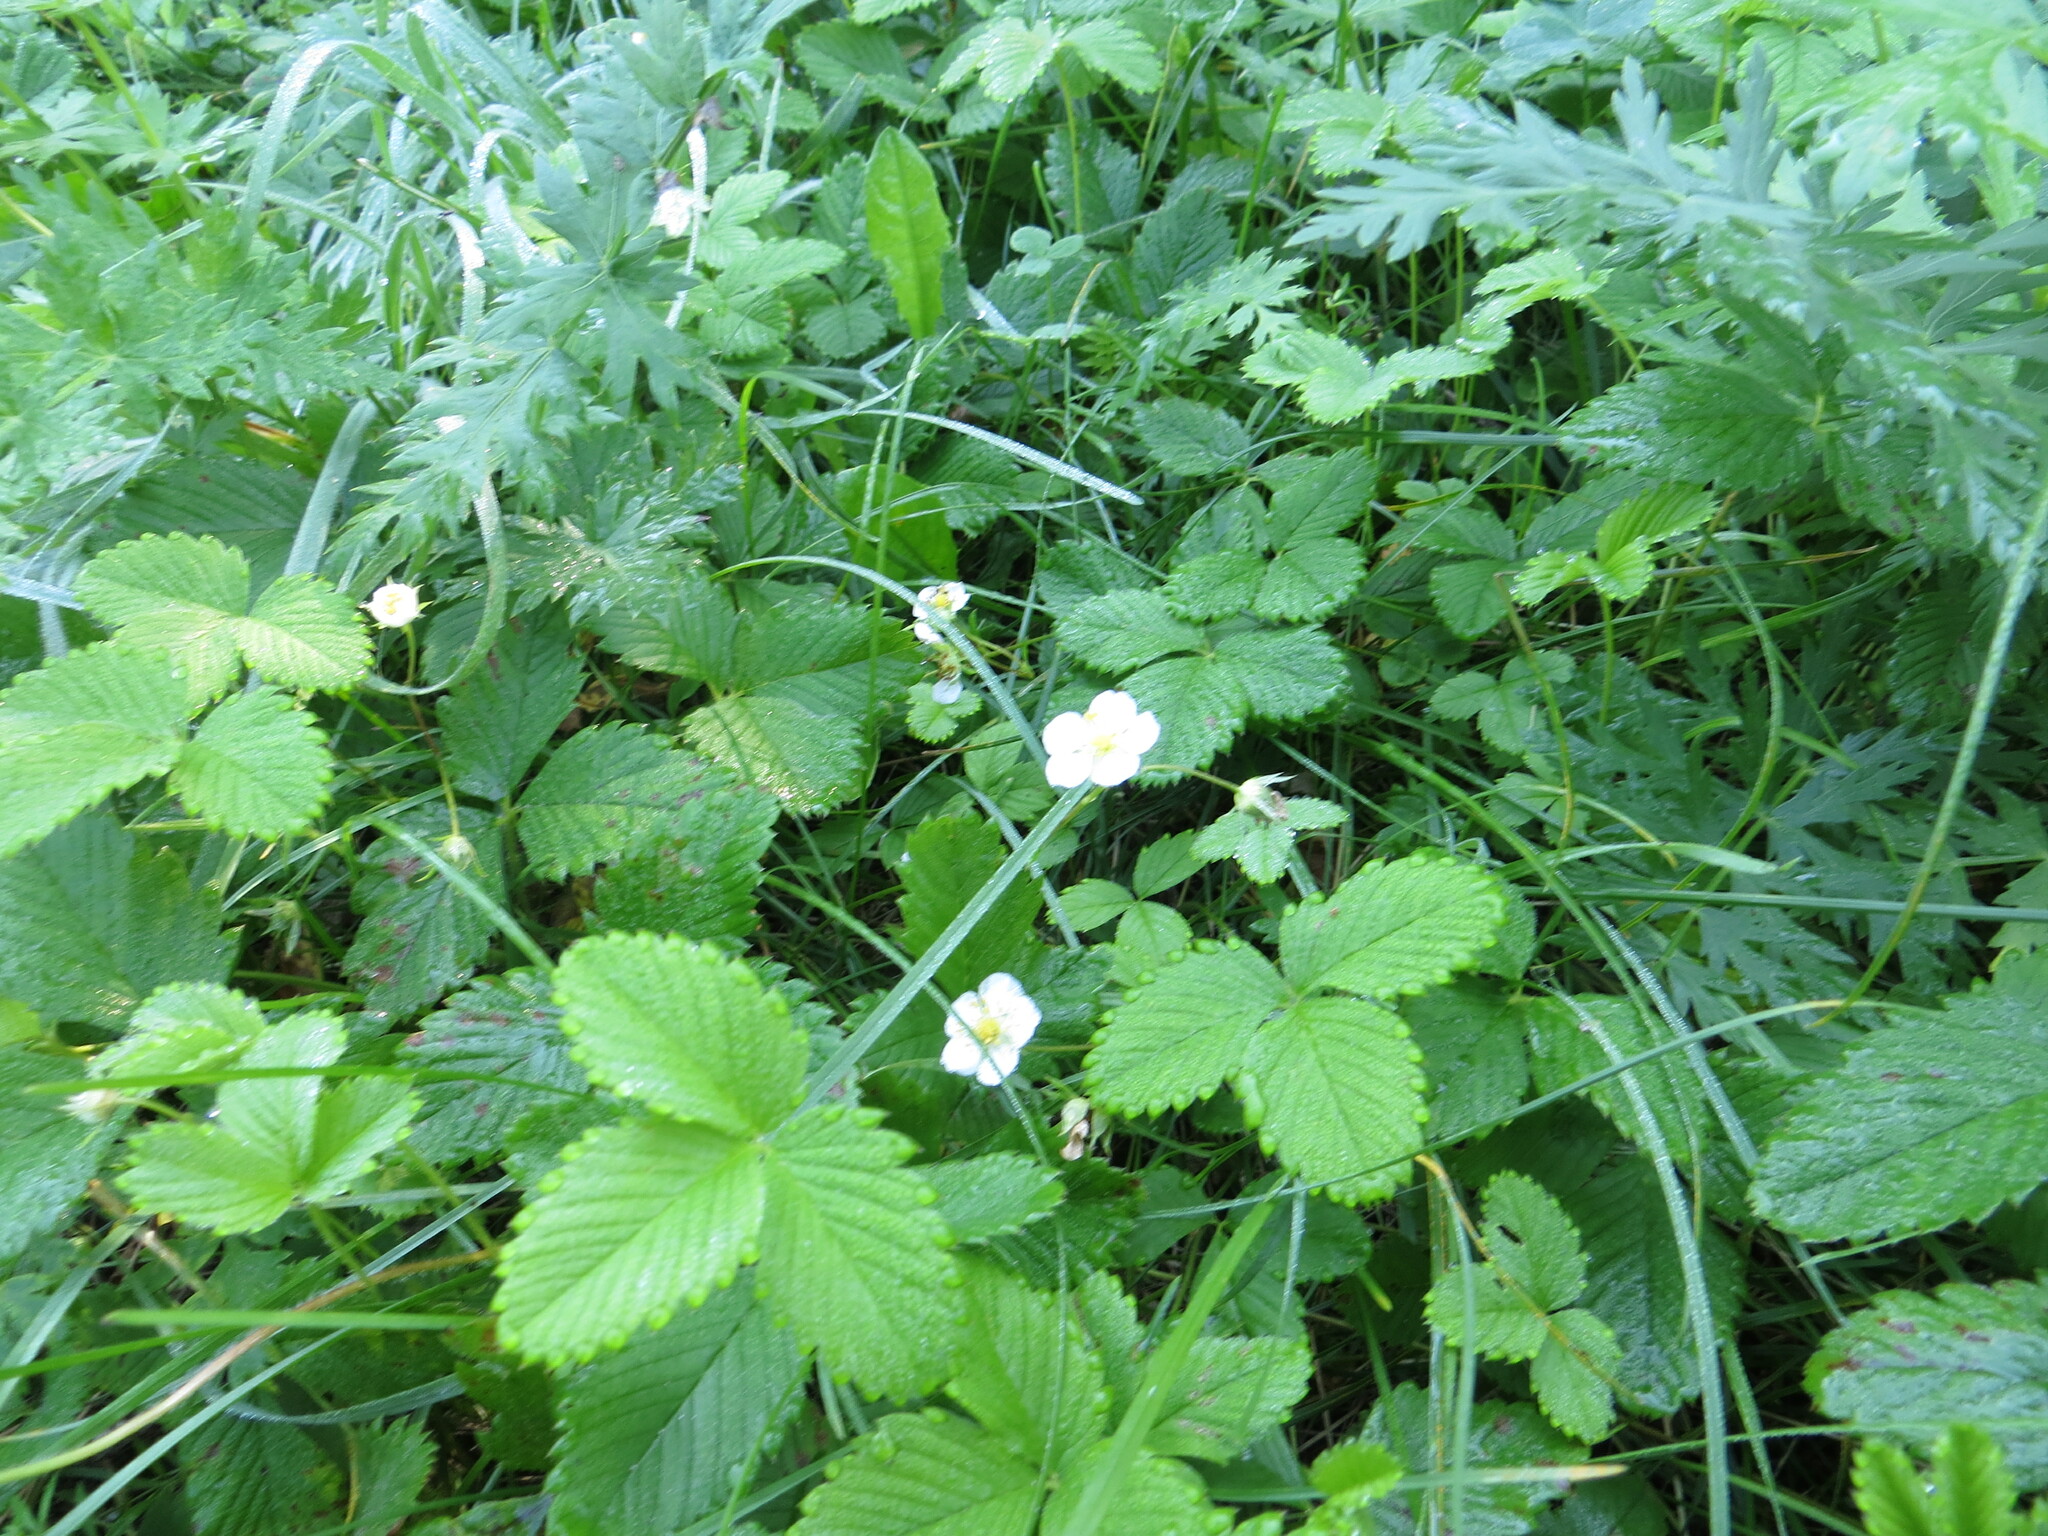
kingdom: Plantae
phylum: Tracheophyta
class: Magnoliopsida
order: Rosales
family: Rosaceae
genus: Fragaria
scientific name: Fragaria viridis
